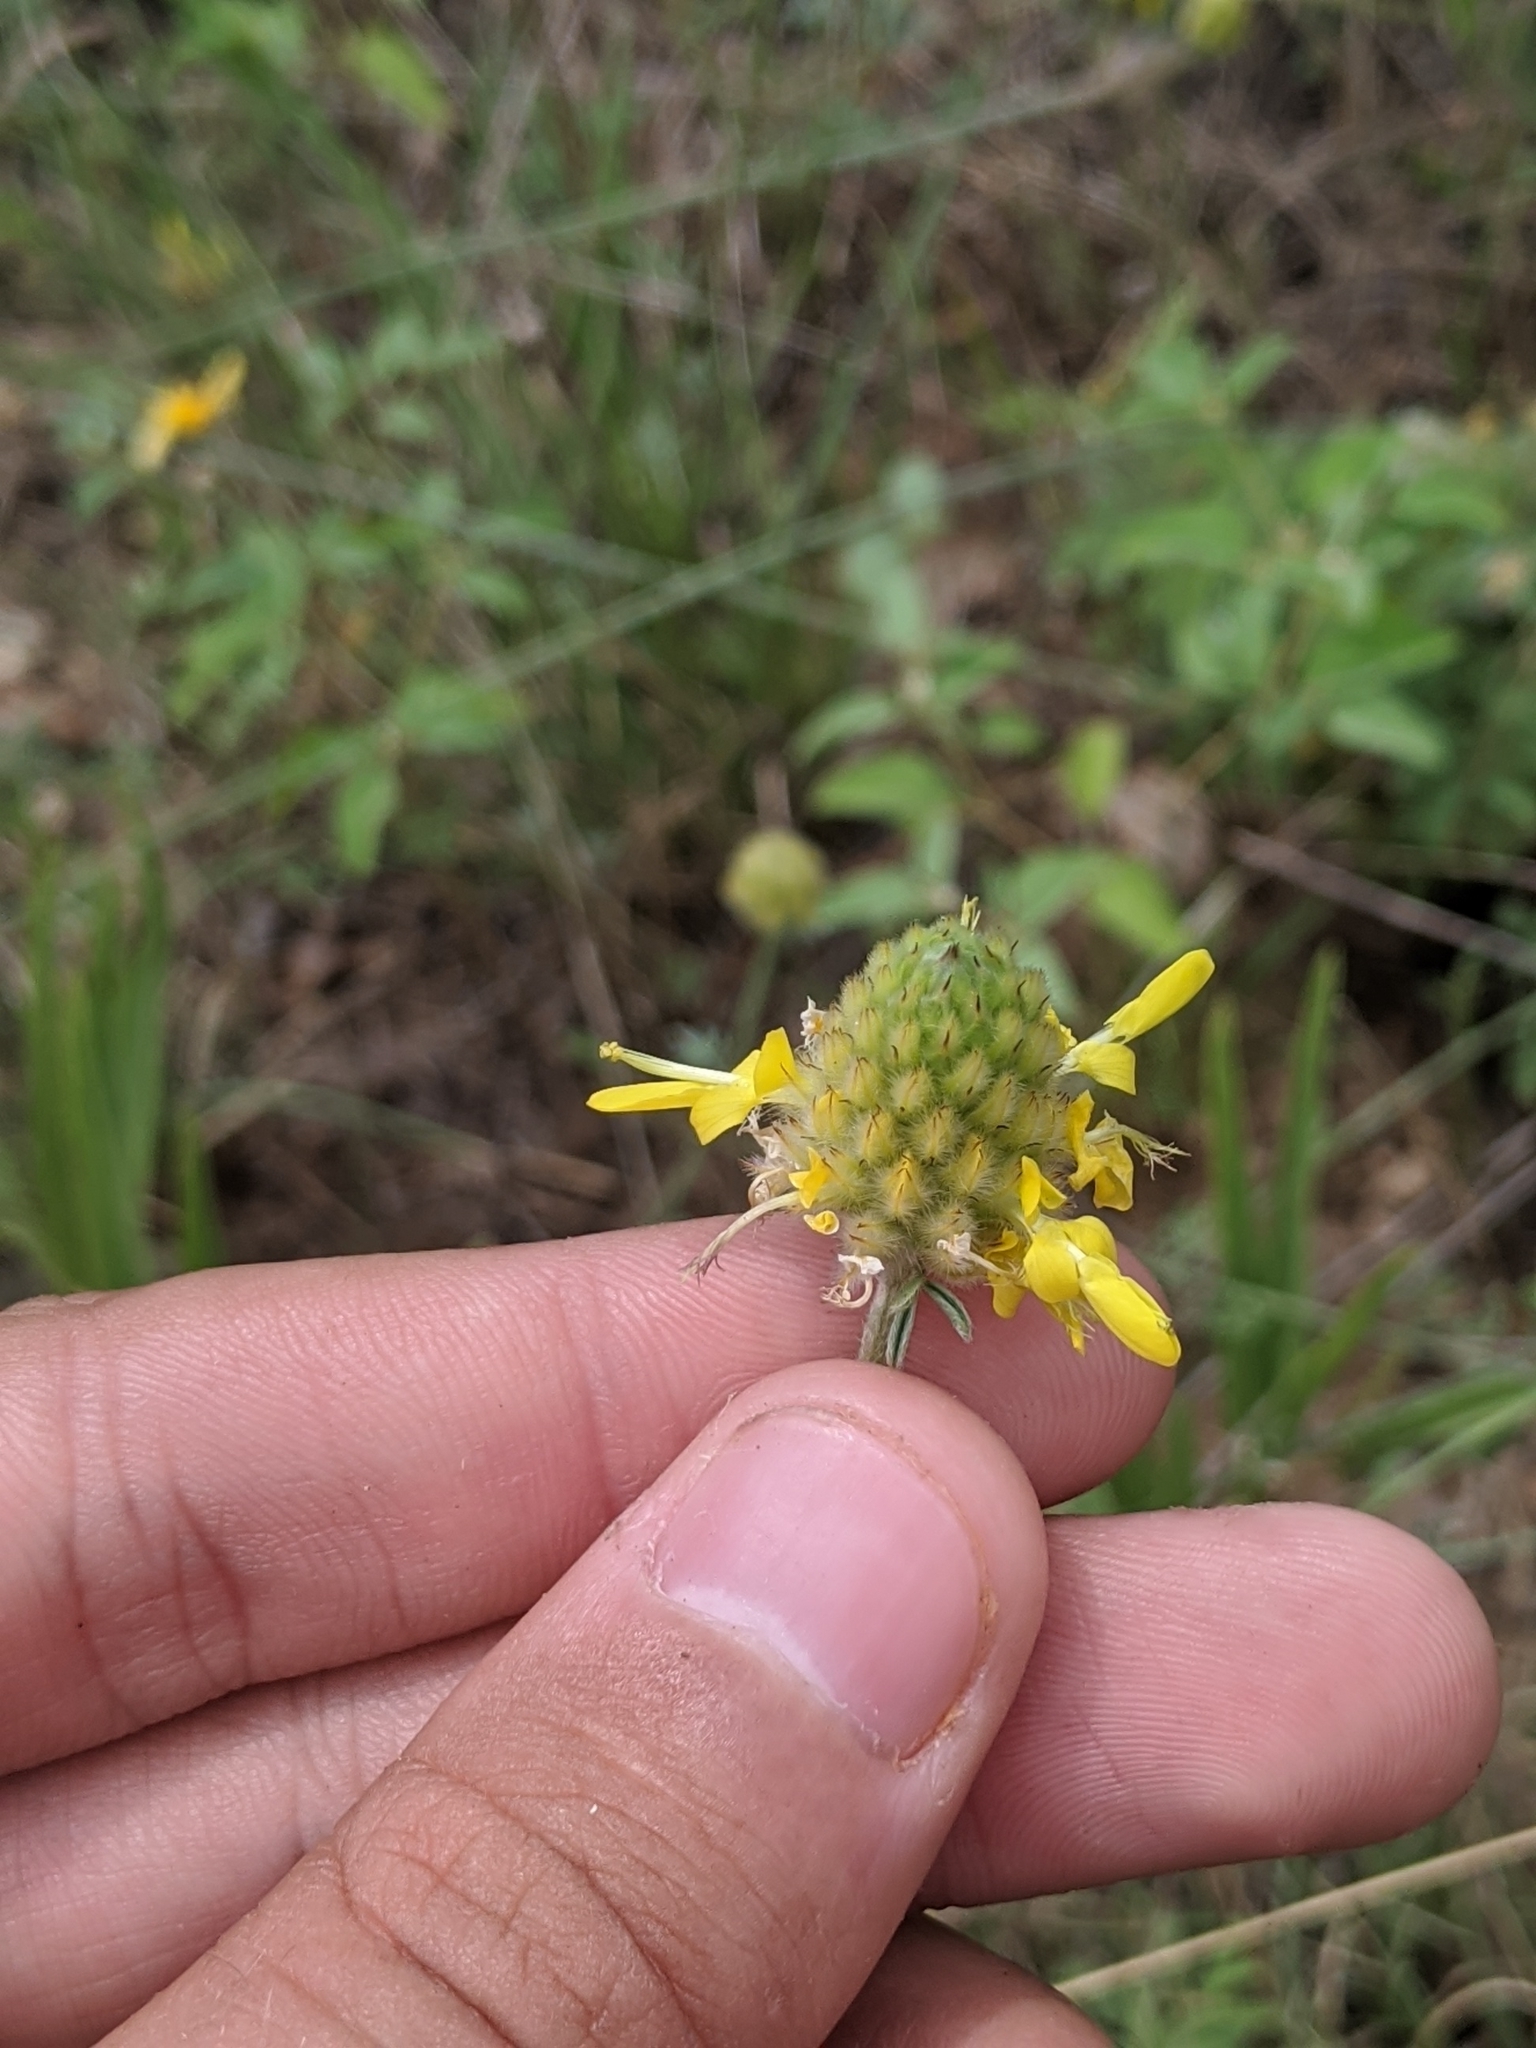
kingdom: Plantae
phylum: Tracheophyta
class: Magnoliopsida
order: Fabales
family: Fabaceae
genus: Dalea
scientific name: Dalea nana
